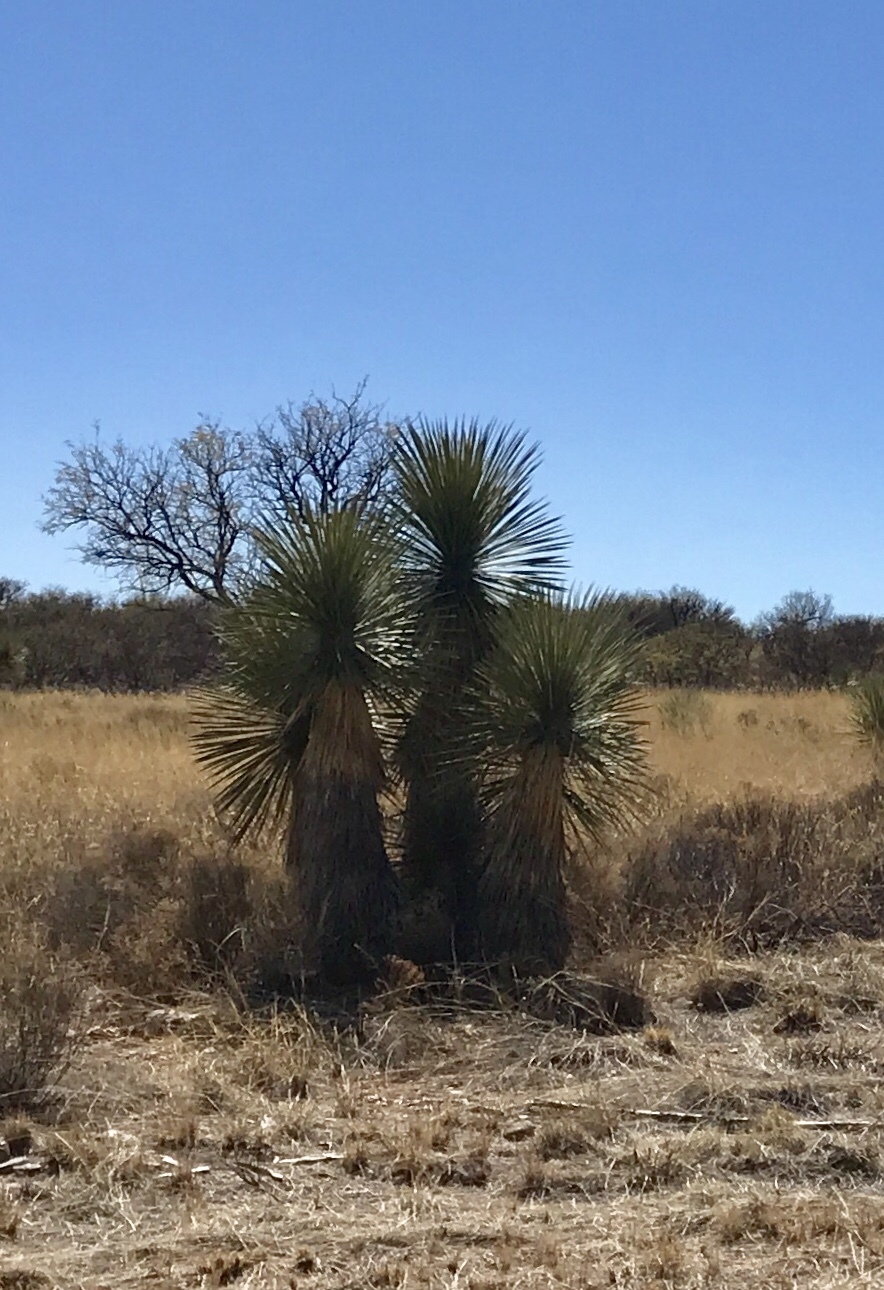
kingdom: Plantae
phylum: Tracheophyta
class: Liliopsida
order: Asparagales
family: Asparagaceae
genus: Yucca
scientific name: Yucca elata
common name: Palmella
